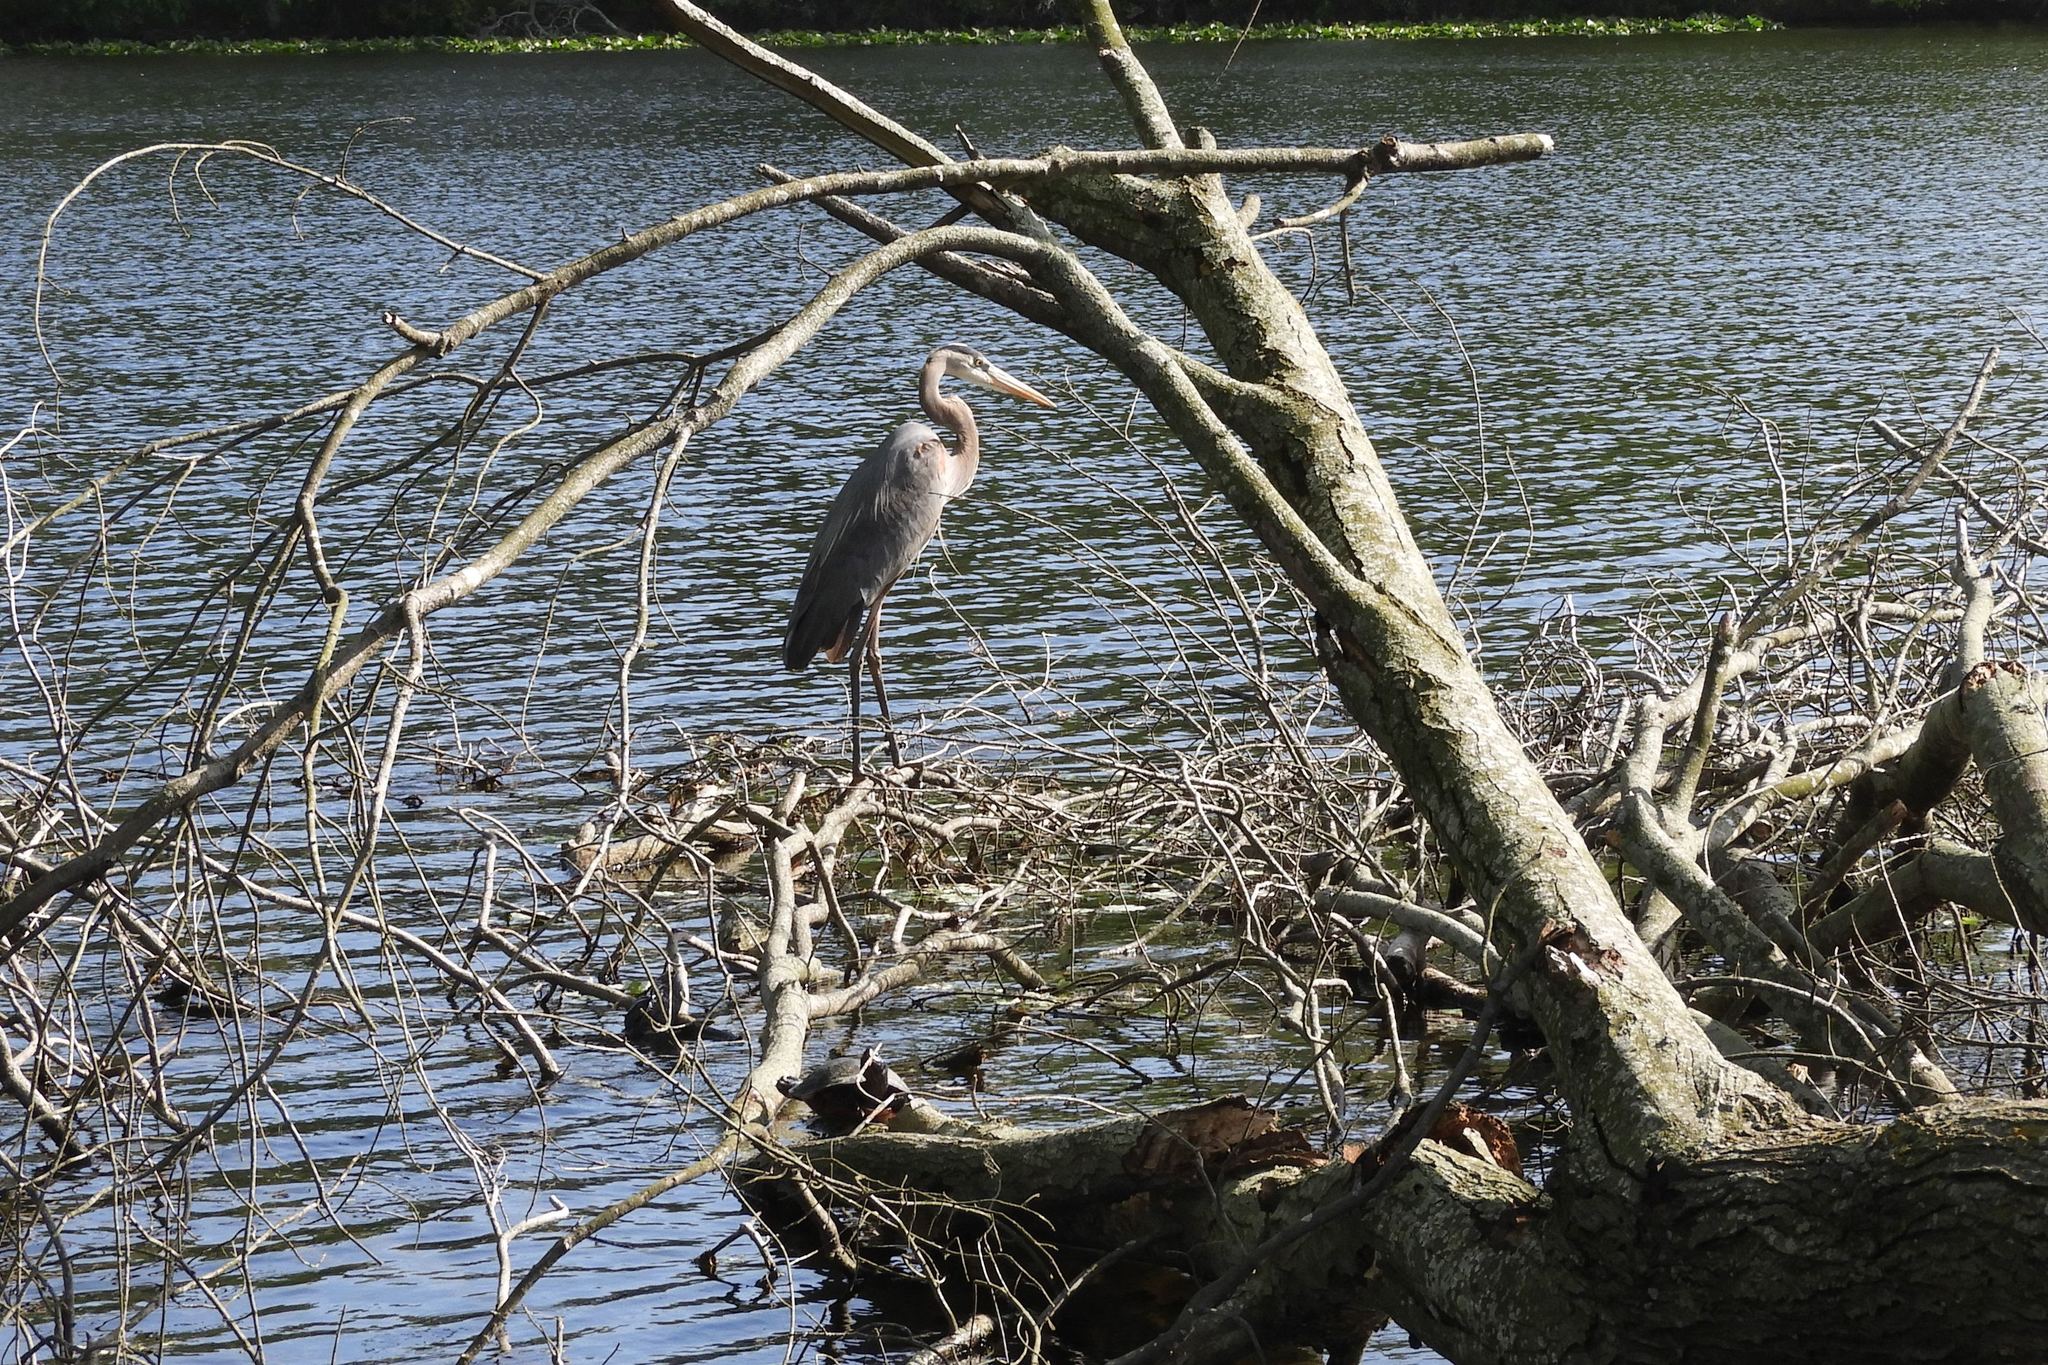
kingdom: Animalia
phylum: Chordata
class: Aves
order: Pelecaniformes
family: Ardeidae
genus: Ardea
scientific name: Ardea herodias
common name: Great blue heron
